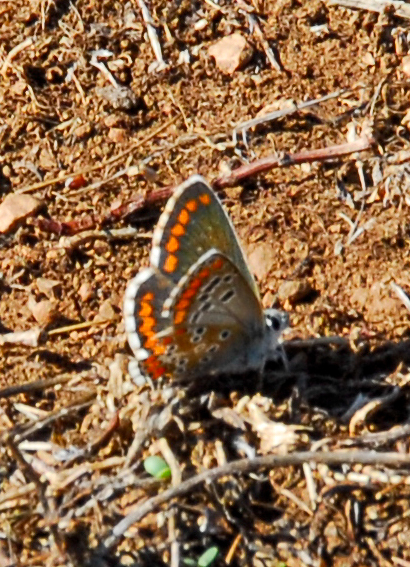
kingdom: Animalia
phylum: Arthropoda
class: Insecta
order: Lepidoptera
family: Lycaenidae
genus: Aricia
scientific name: Aricia cramera
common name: Eschscholtz´s brown  argus
